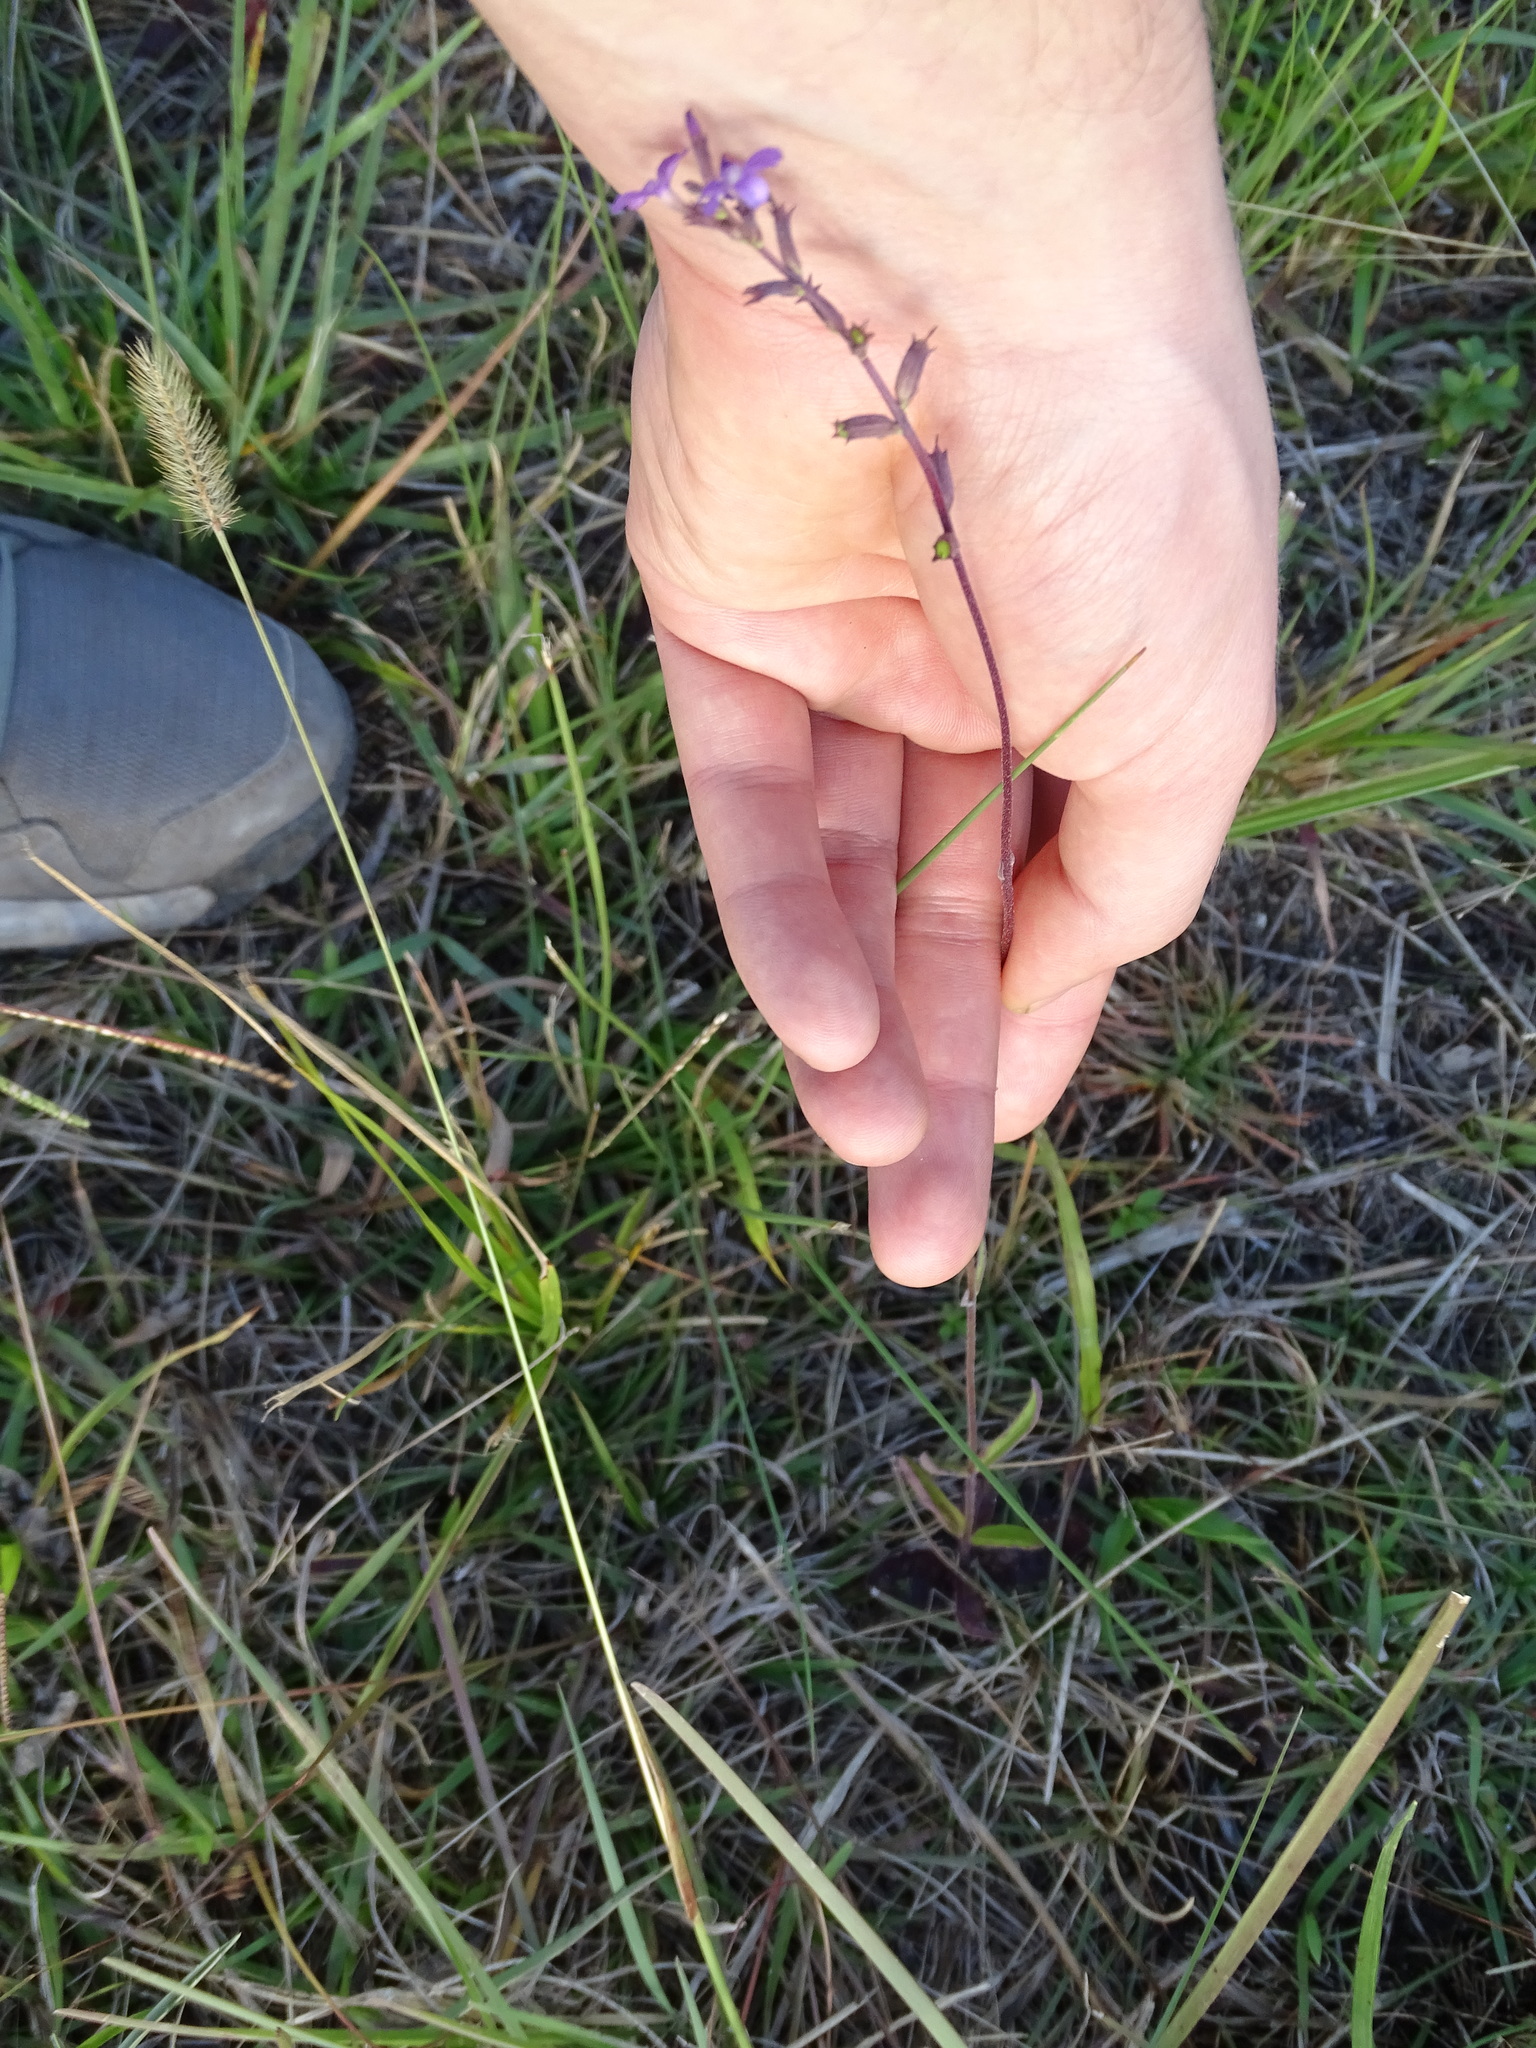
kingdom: Plantae
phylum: Tracheophyta
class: Magnoliopsida
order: Lamiales
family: Orobanchaceae
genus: Buchnera
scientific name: Buchnera floridana
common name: Florida bluehearts
